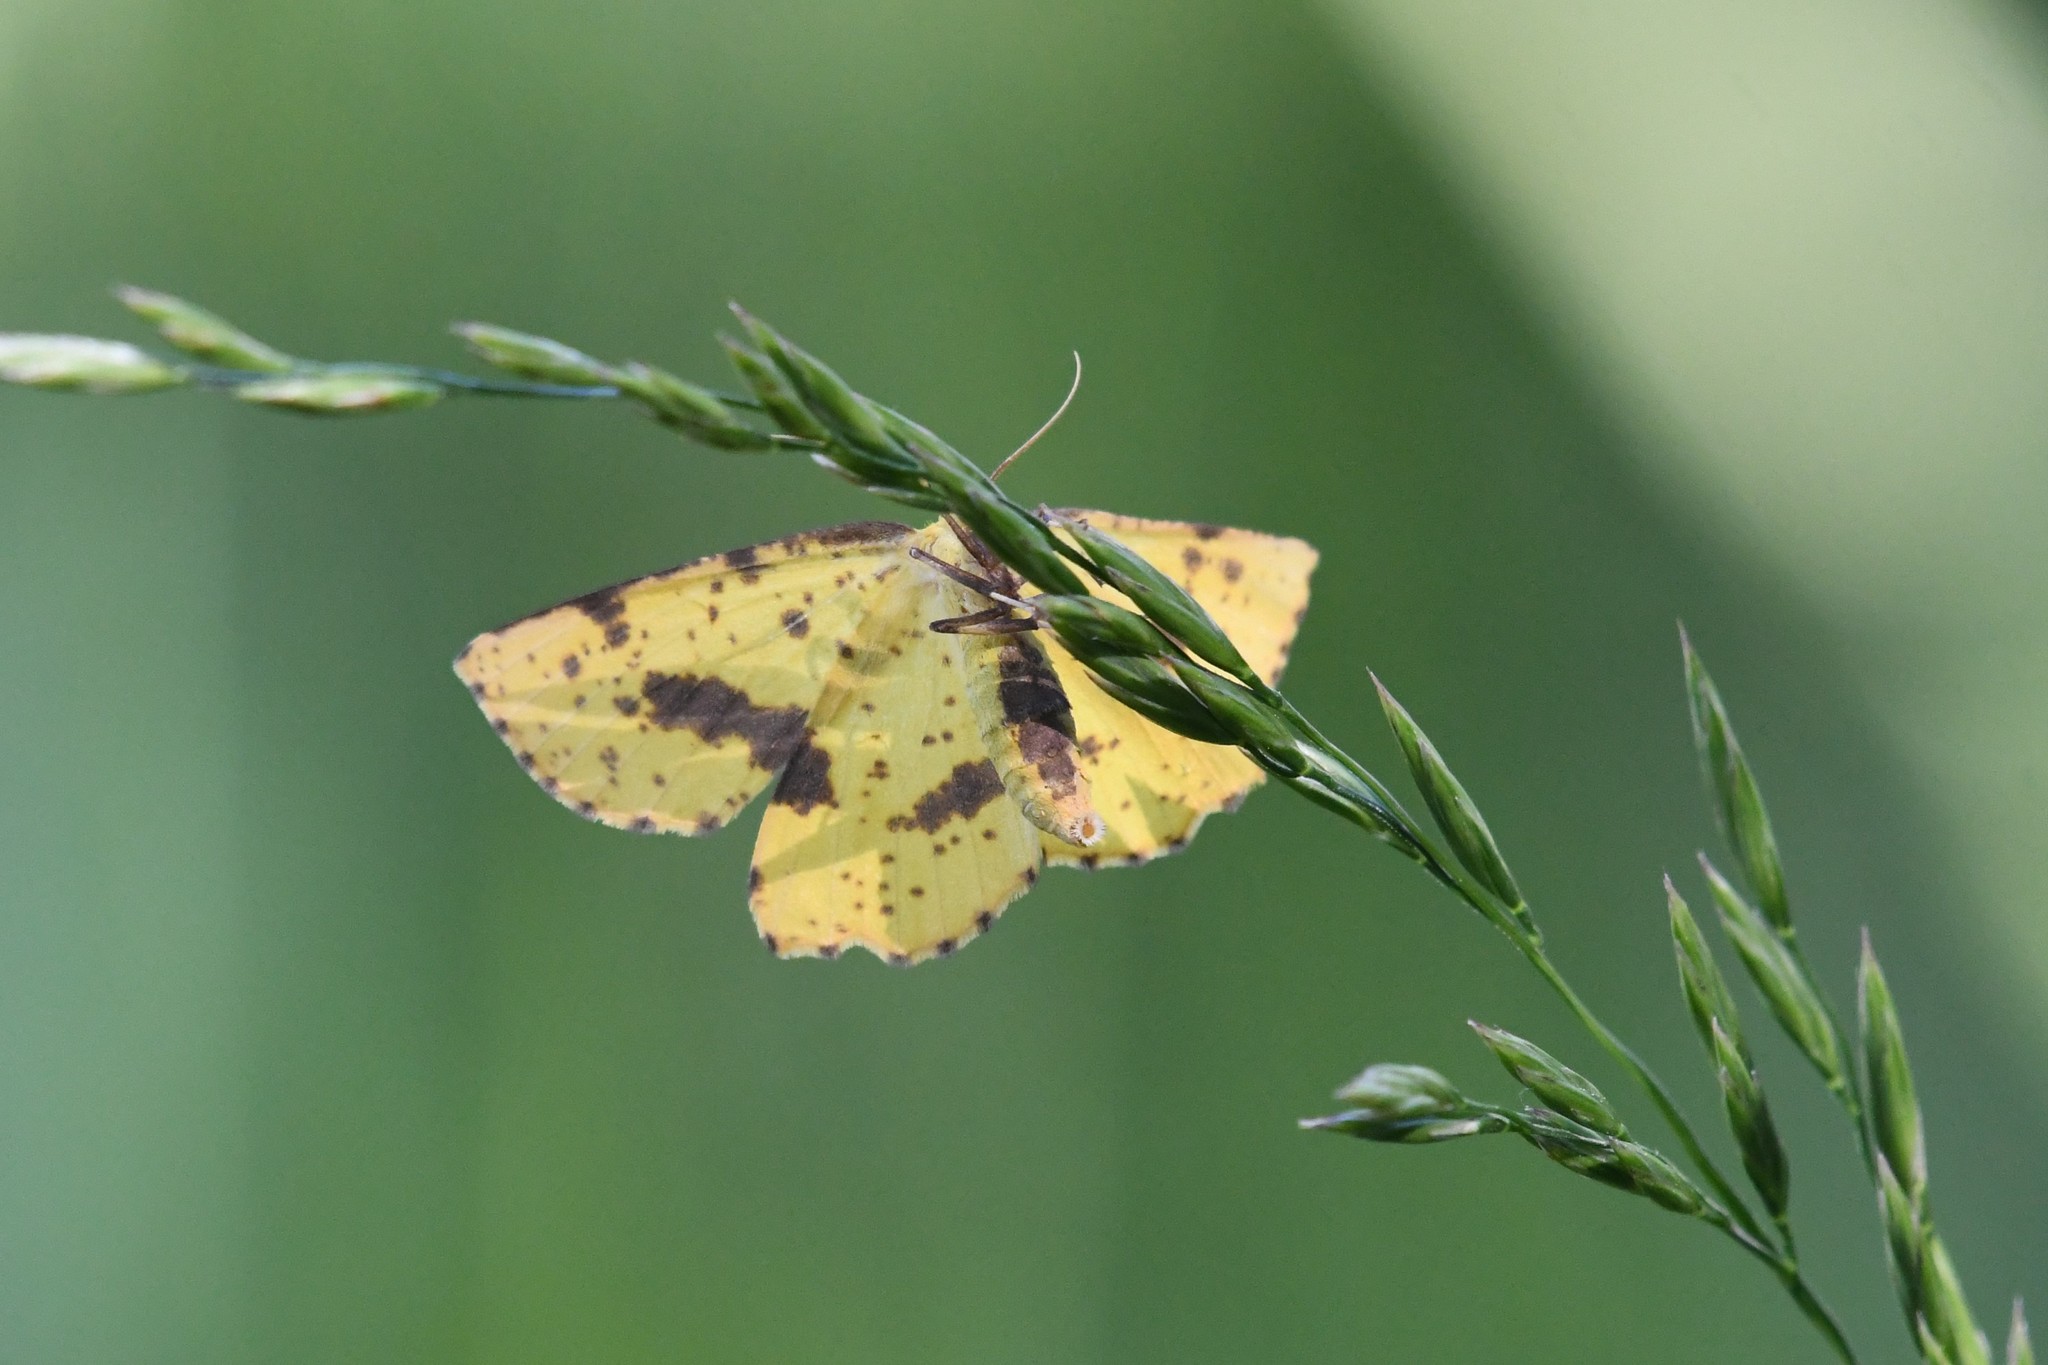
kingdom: Animalia
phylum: Arthropoda
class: Insecta
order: Lepidoptera
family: Geometridae
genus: Xanthotype
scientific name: Xanthotype
